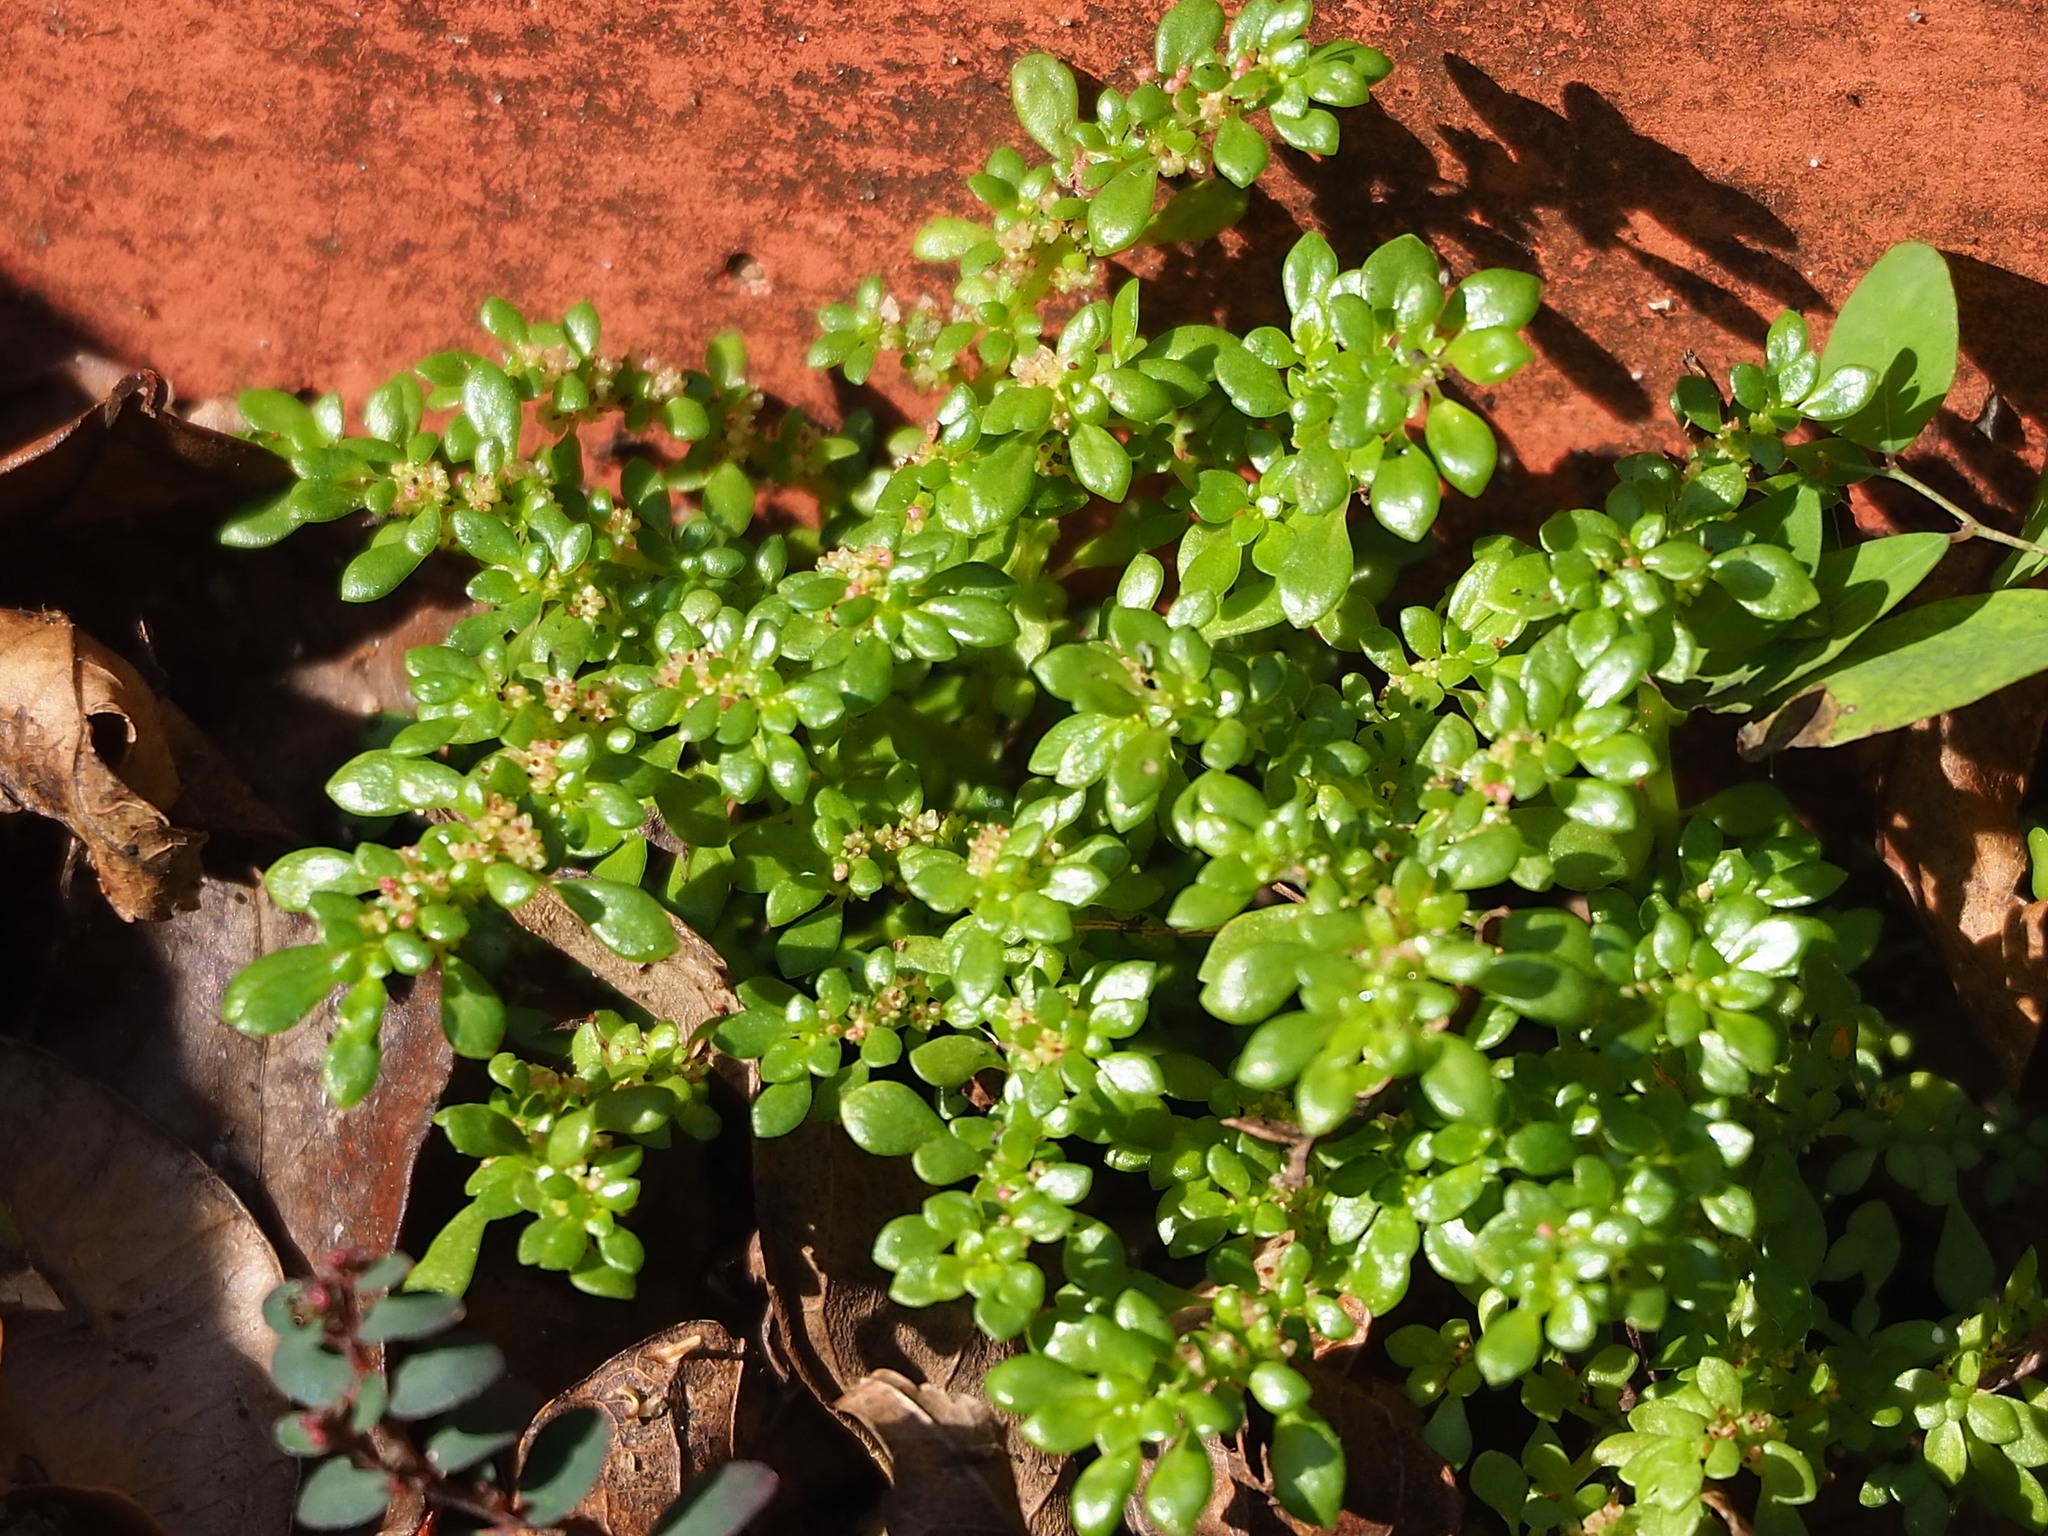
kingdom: Plantae
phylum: Tracheophyta
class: Magnoliopsida
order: Rosales
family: Urticaceae
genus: Pilea
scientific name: Pilea microphylla
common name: Artillery-plant
